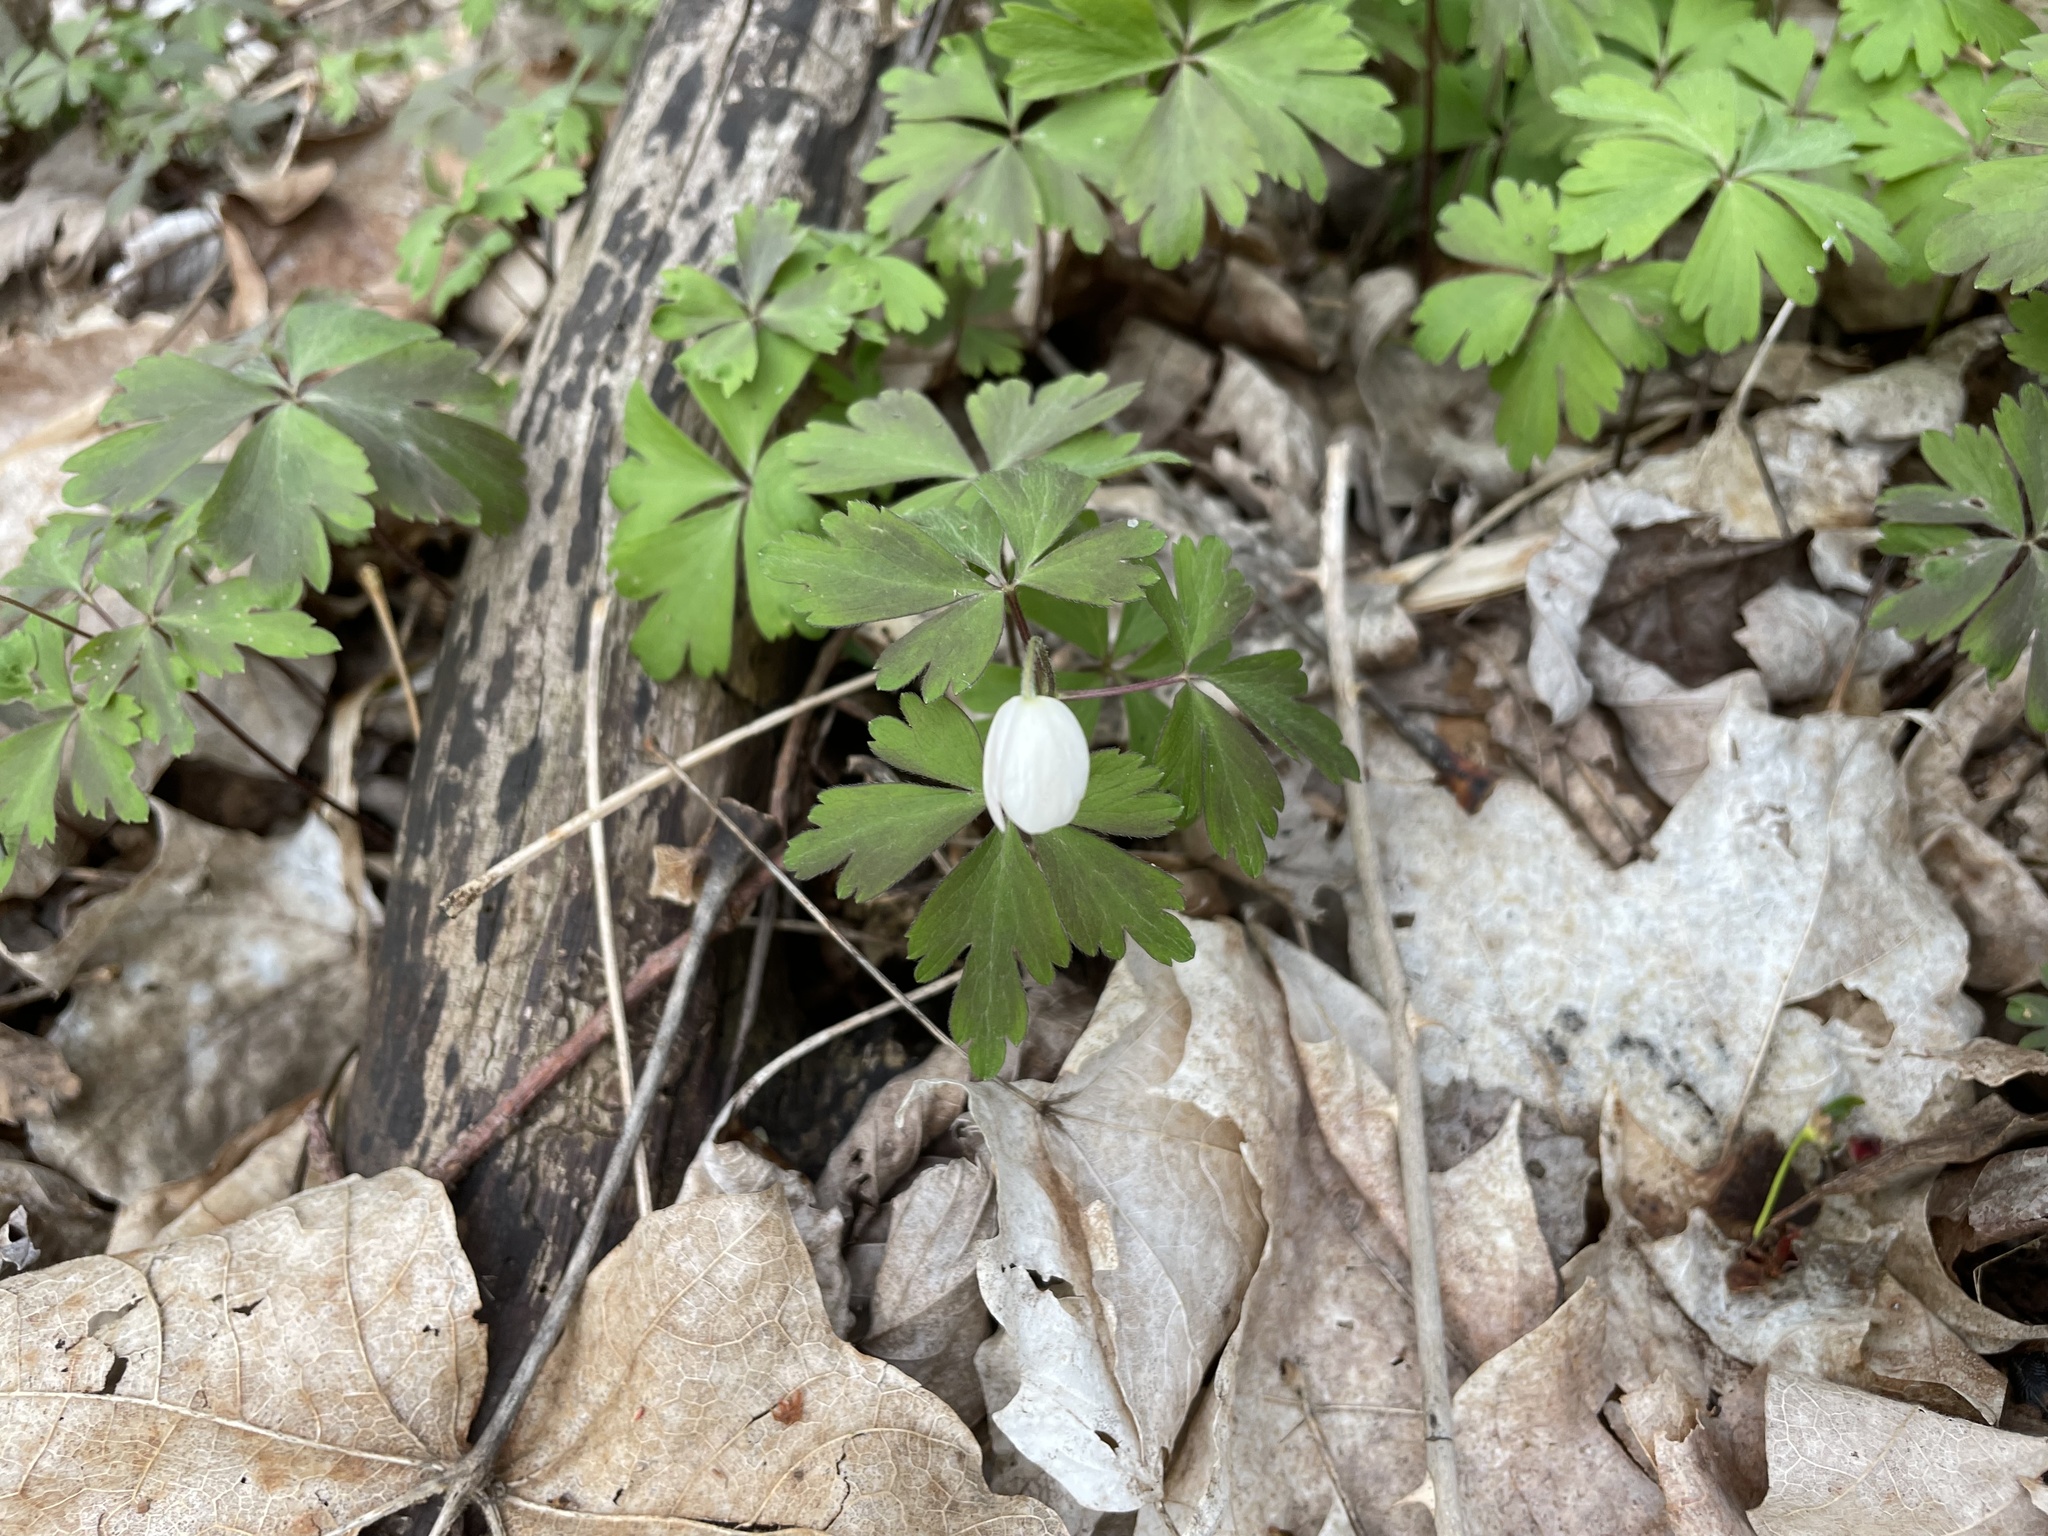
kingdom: Plantae
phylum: Tracheophyta
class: Magnoliopsida
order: Ranunculales
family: Ranunculaceae
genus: Anemone
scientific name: Anemone quinquefolia
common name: Wood anemone
